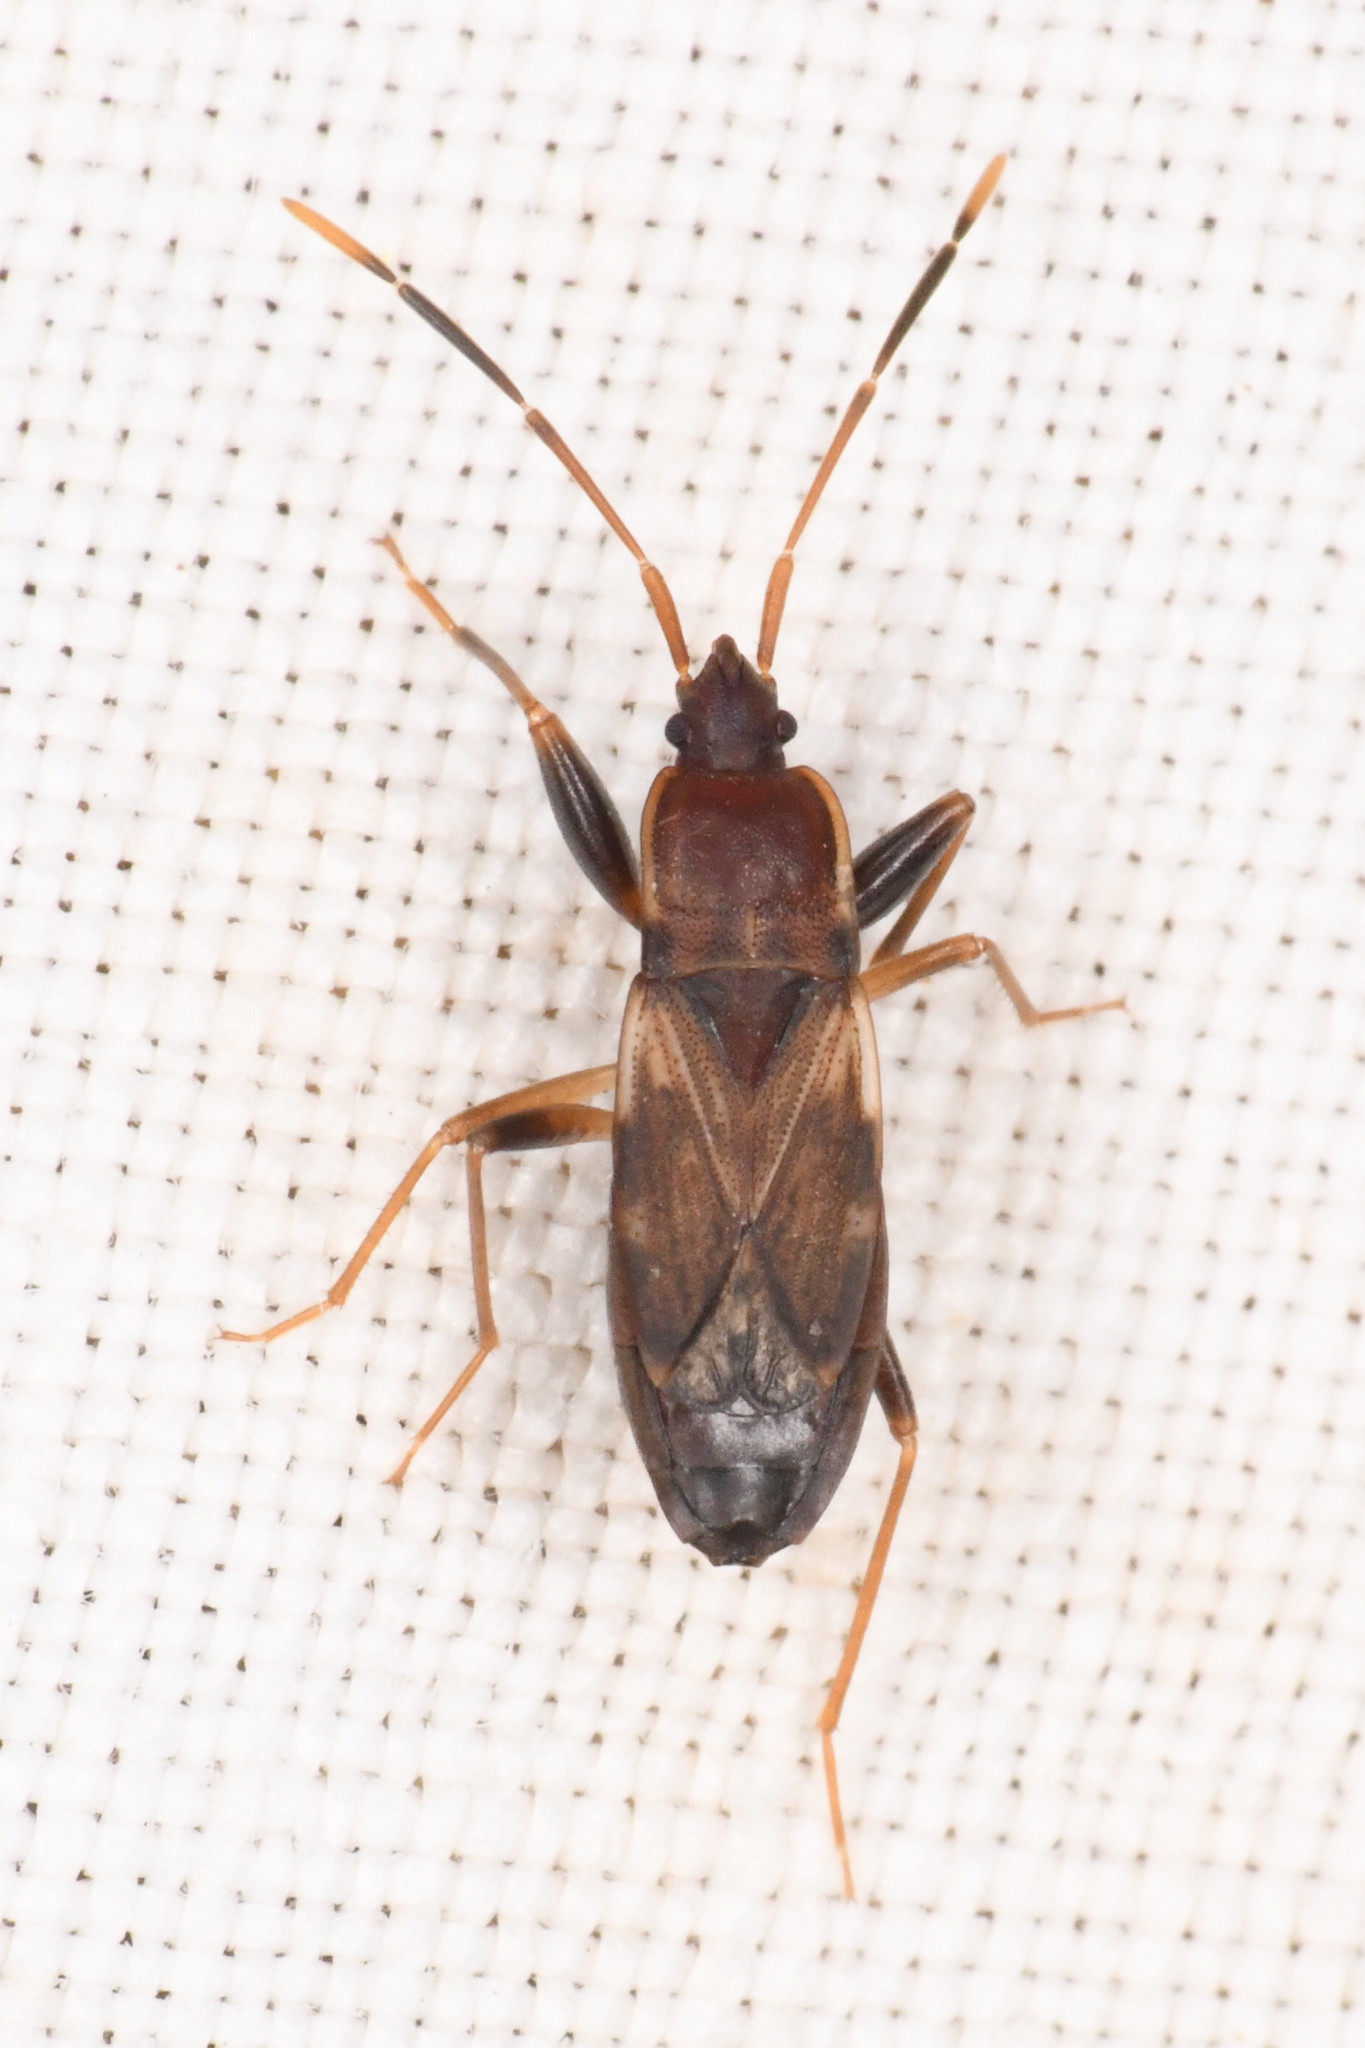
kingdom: Animalia
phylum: Arthropoda
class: Insecta
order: Hemiptera
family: Rhyparochromidae
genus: Togodolentus
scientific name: Togodolentus wrighti
